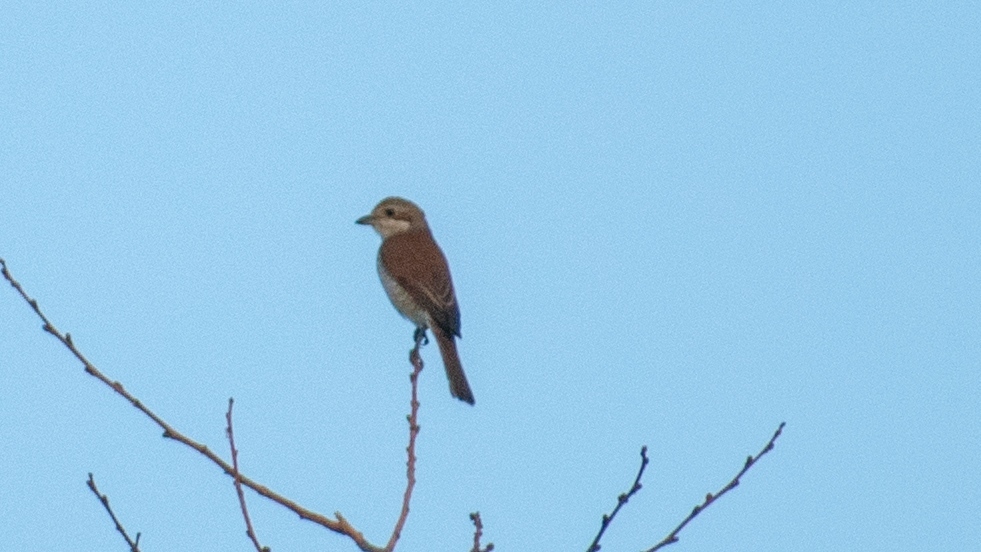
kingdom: Animalia
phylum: Chordata
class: Aves
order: Passeriformes
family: Laniidae
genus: Lanius
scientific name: Lanius collurio
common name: Red-backed shrike
